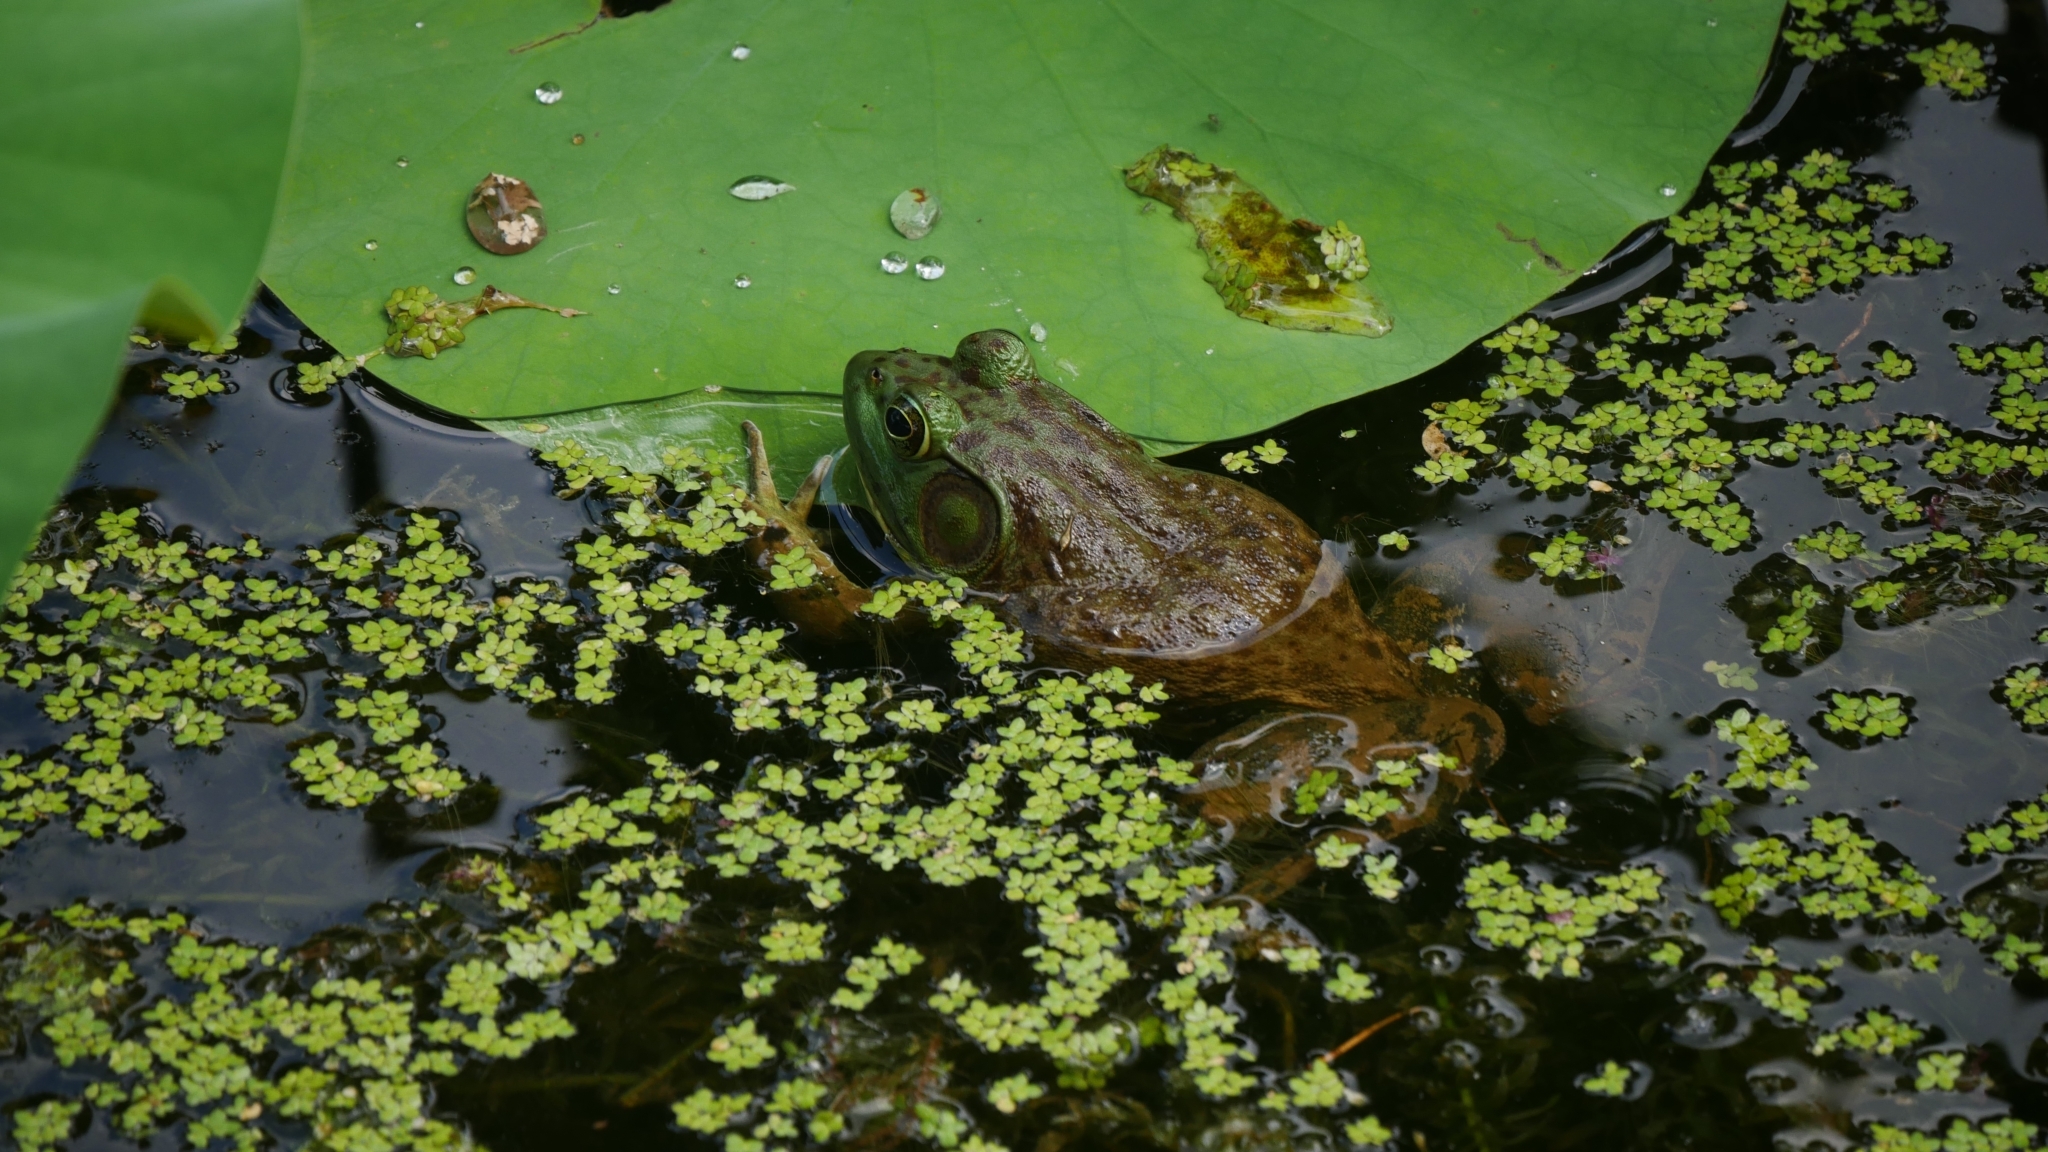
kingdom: Animalia
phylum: Chordata
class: Amphibia
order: Anura
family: Ranidae
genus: Lithobates
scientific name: Lithobates catesbeianus
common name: American bullfrog
